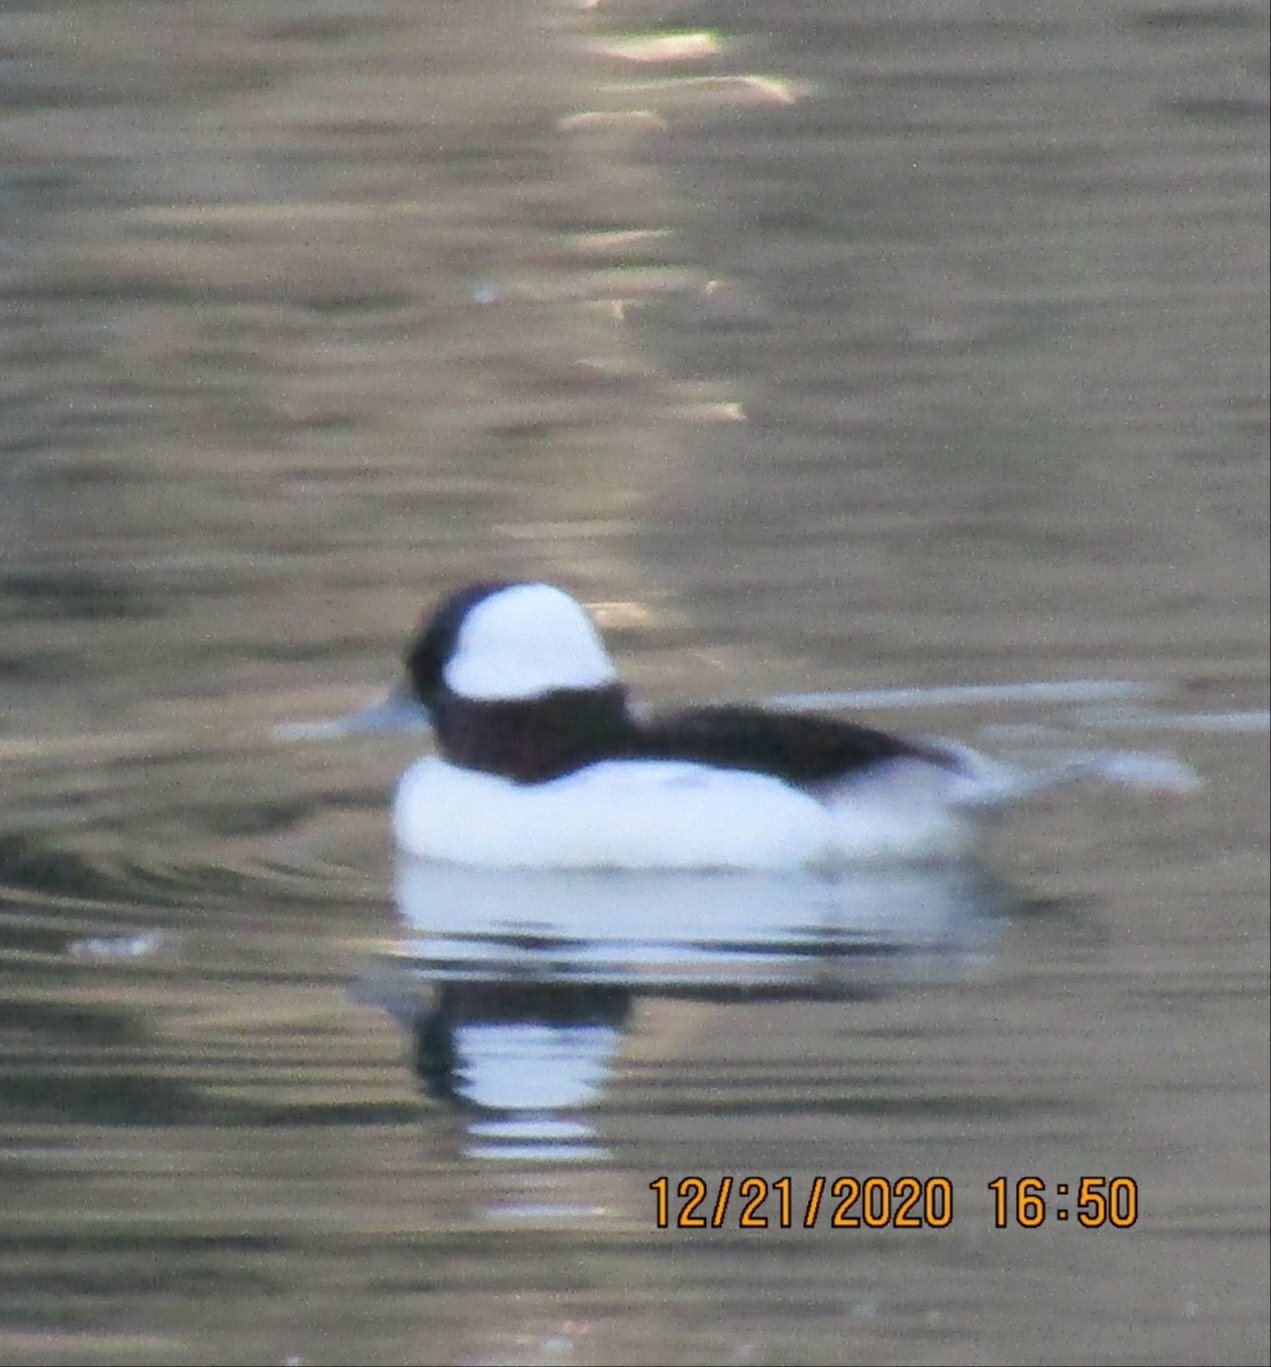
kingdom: Animalia
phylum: Chordata
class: Aves
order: Anseriformes
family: Anatidae
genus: Bucephala
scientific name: Bucephala albeola
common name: Bufflehead
